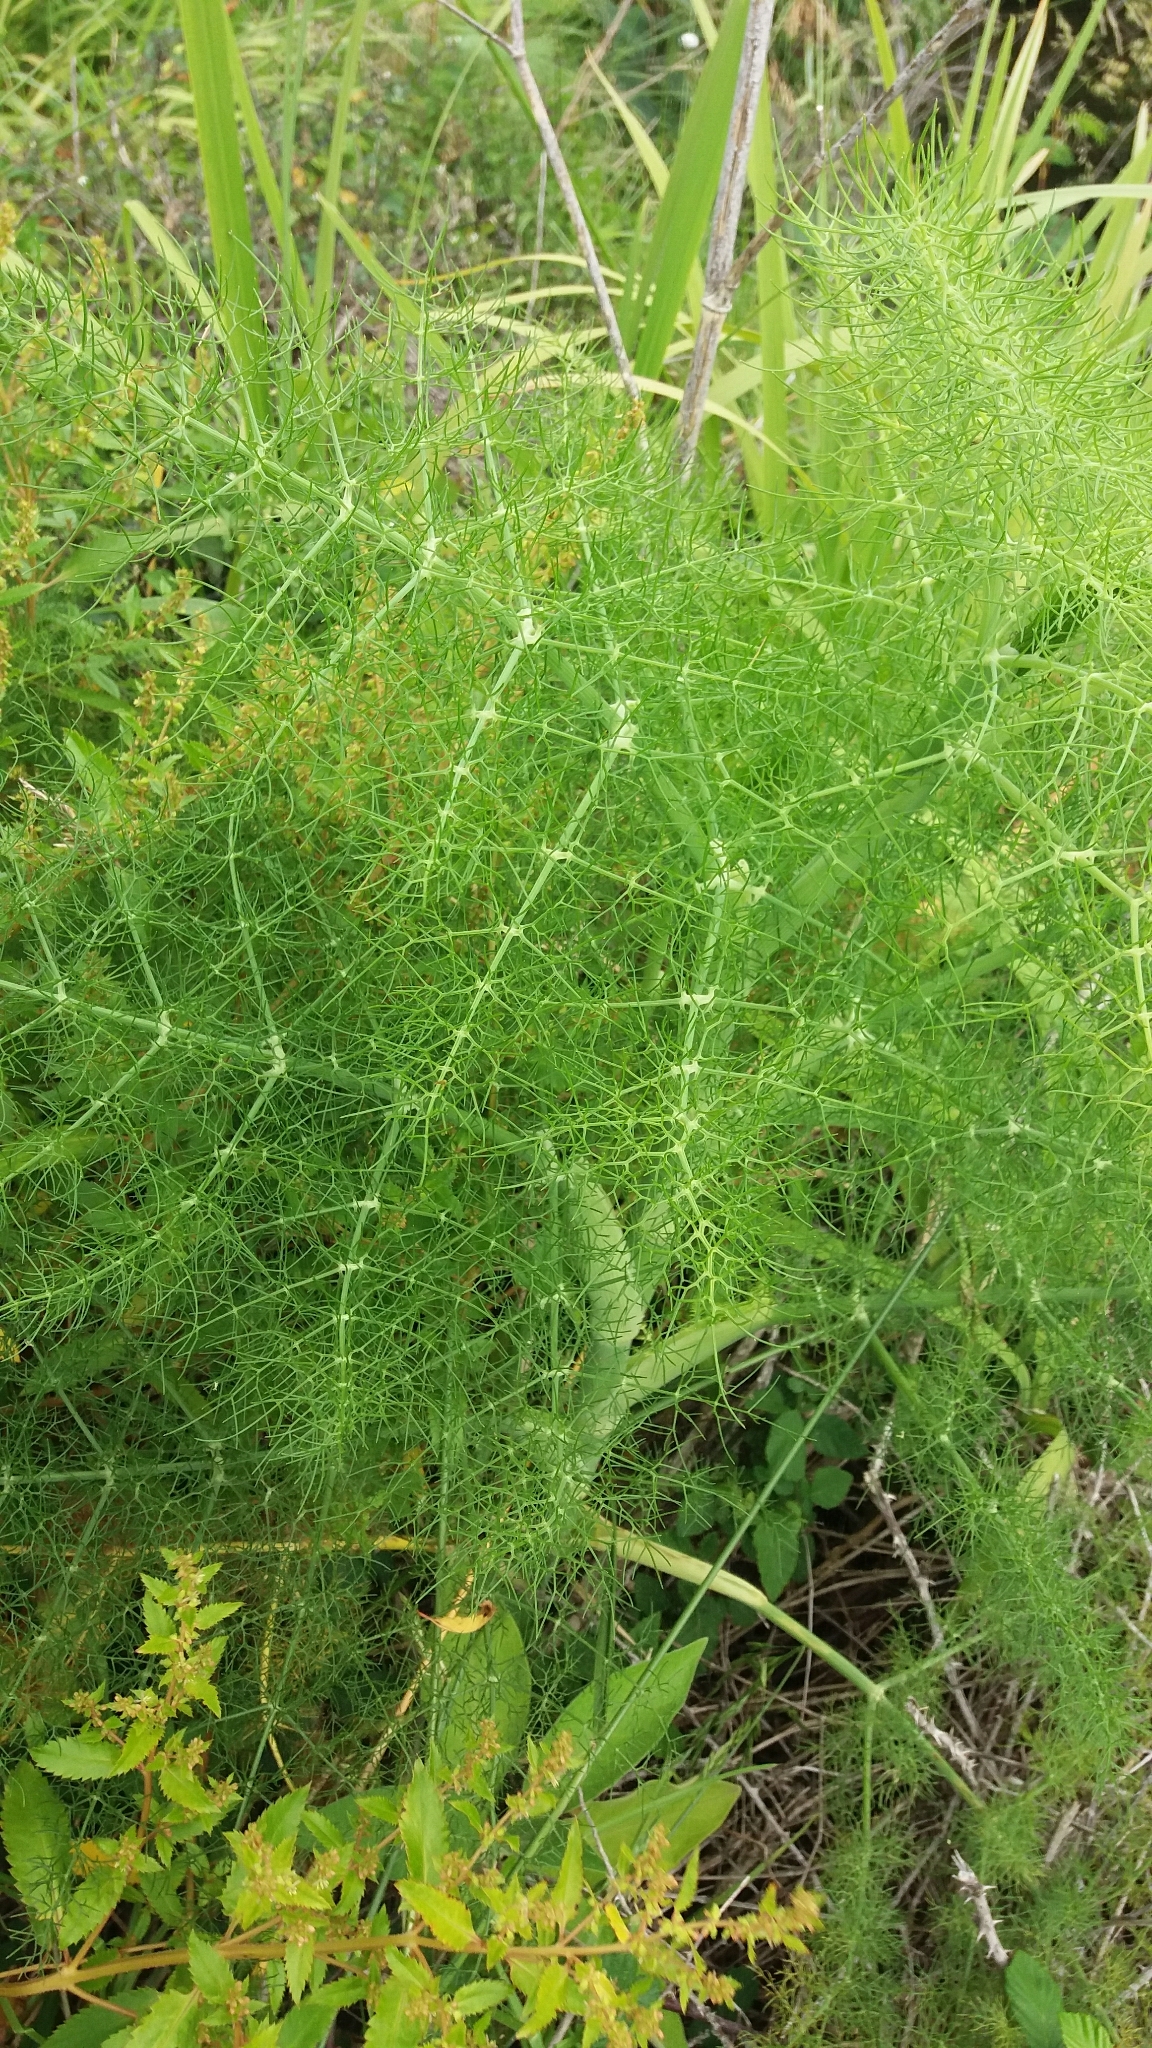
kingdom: Plantae
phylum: Tracheophyta
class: Magnoliopsida
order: Apiales
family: Apiaceae
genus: Foeniculum
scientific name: Foeniculum vulgare
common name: Fennel
